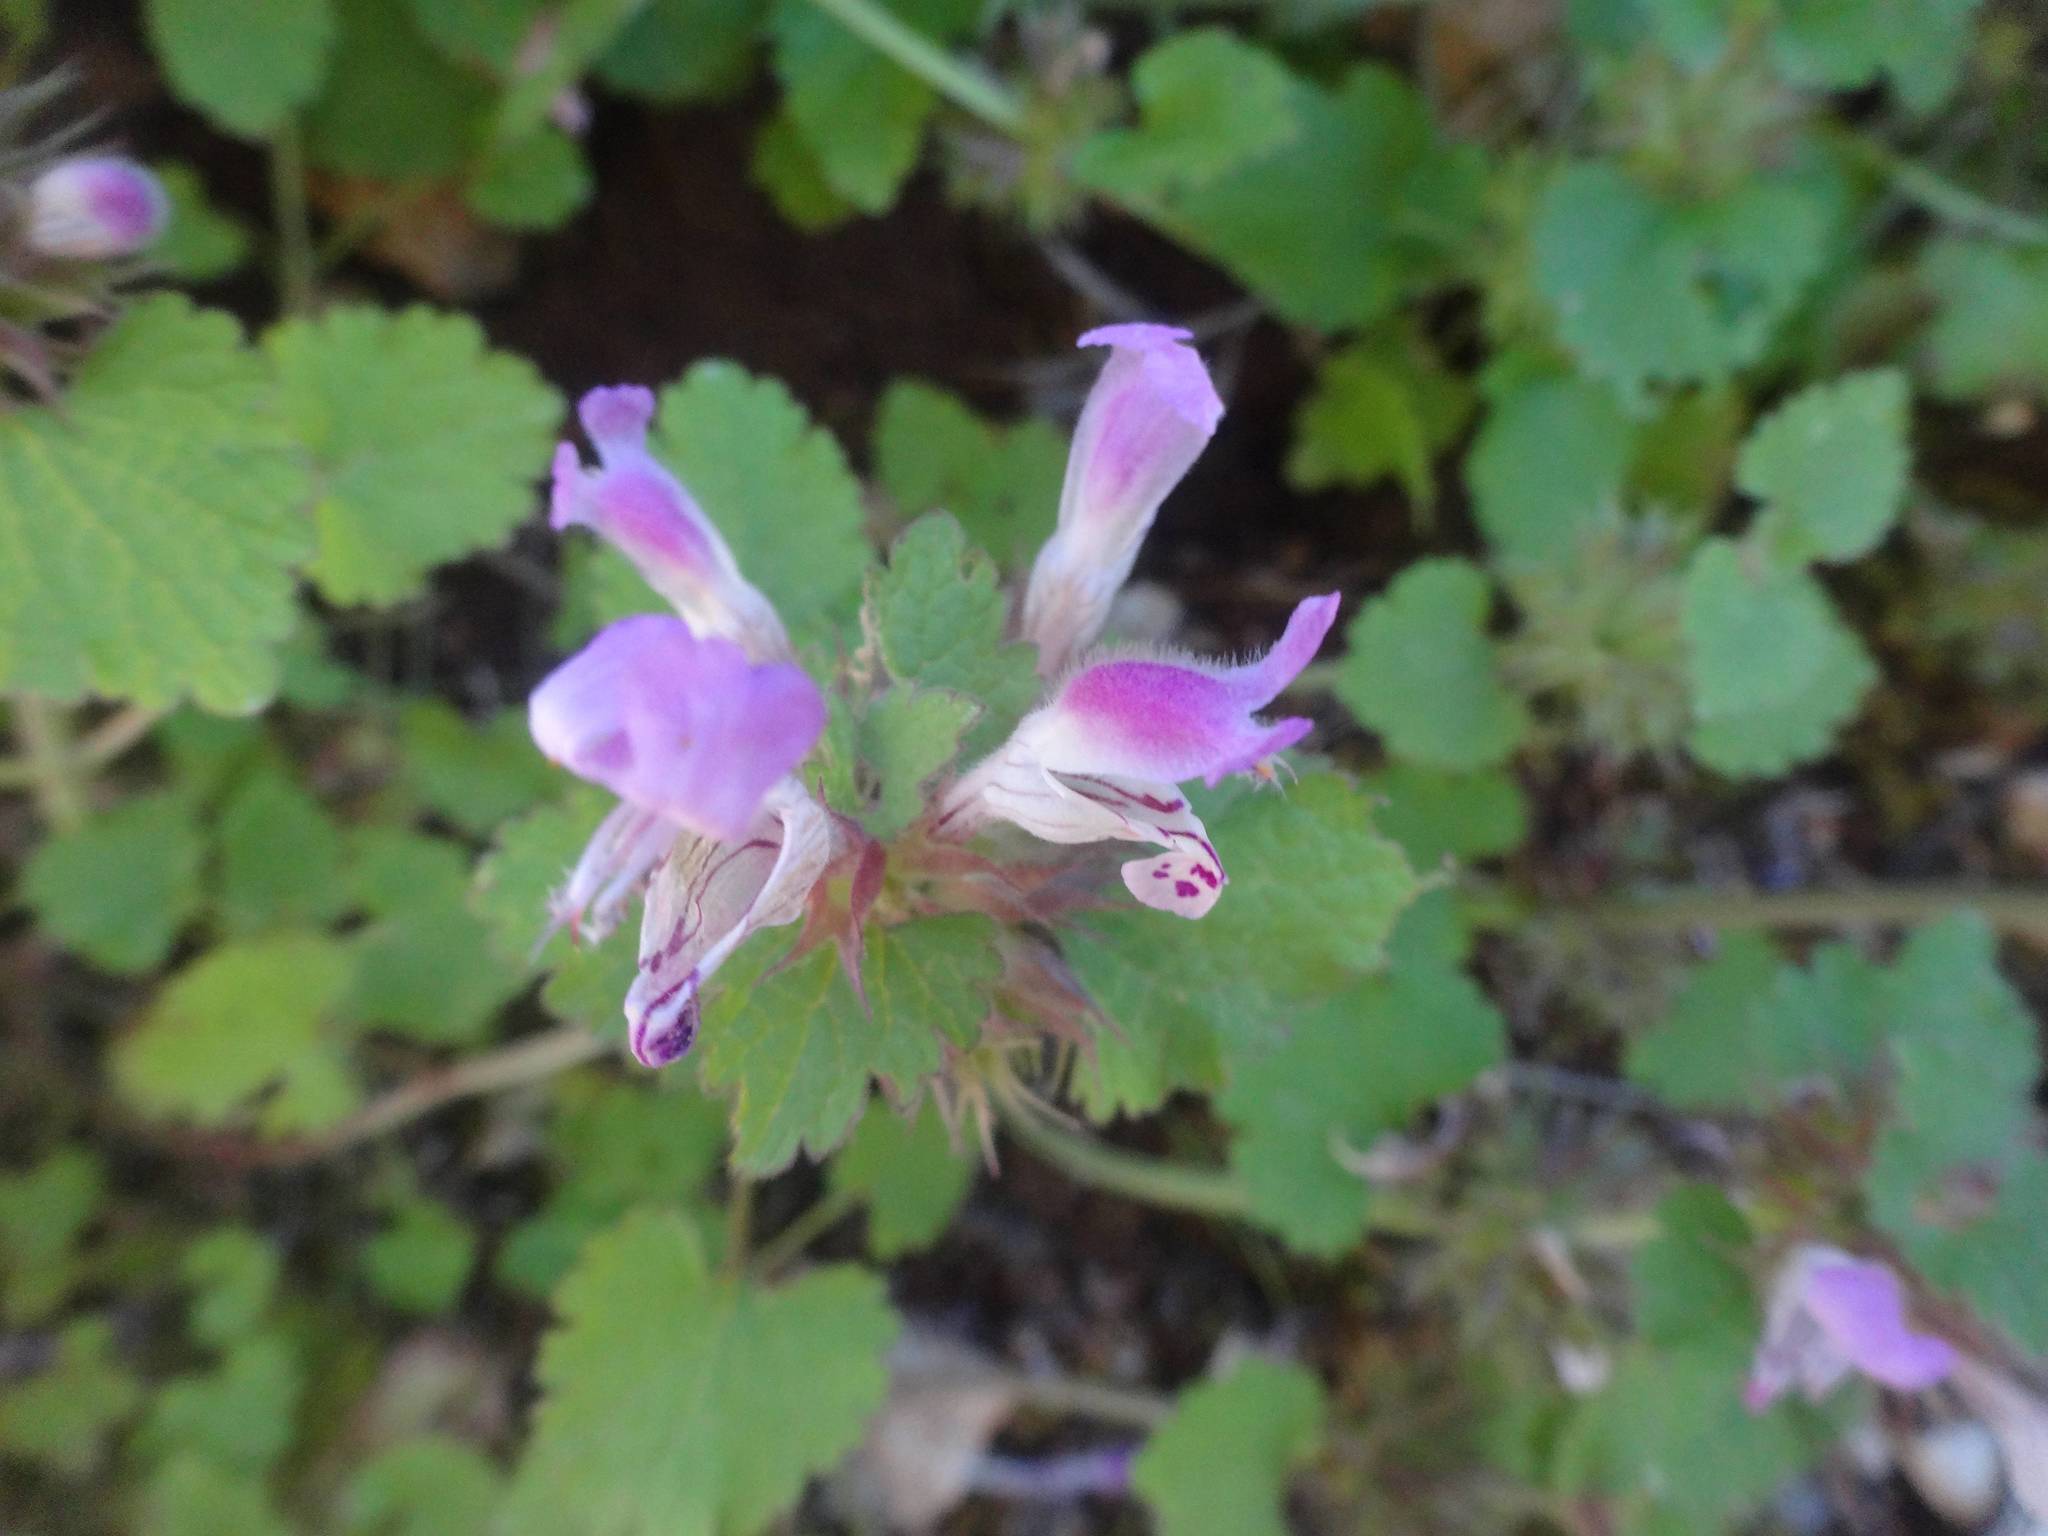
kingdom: Plantae
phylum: Tracheophyta
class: Magnoliopsida
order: Lamiales
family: Lamiaceae
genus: Lamium
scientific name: Lamium garganicum
